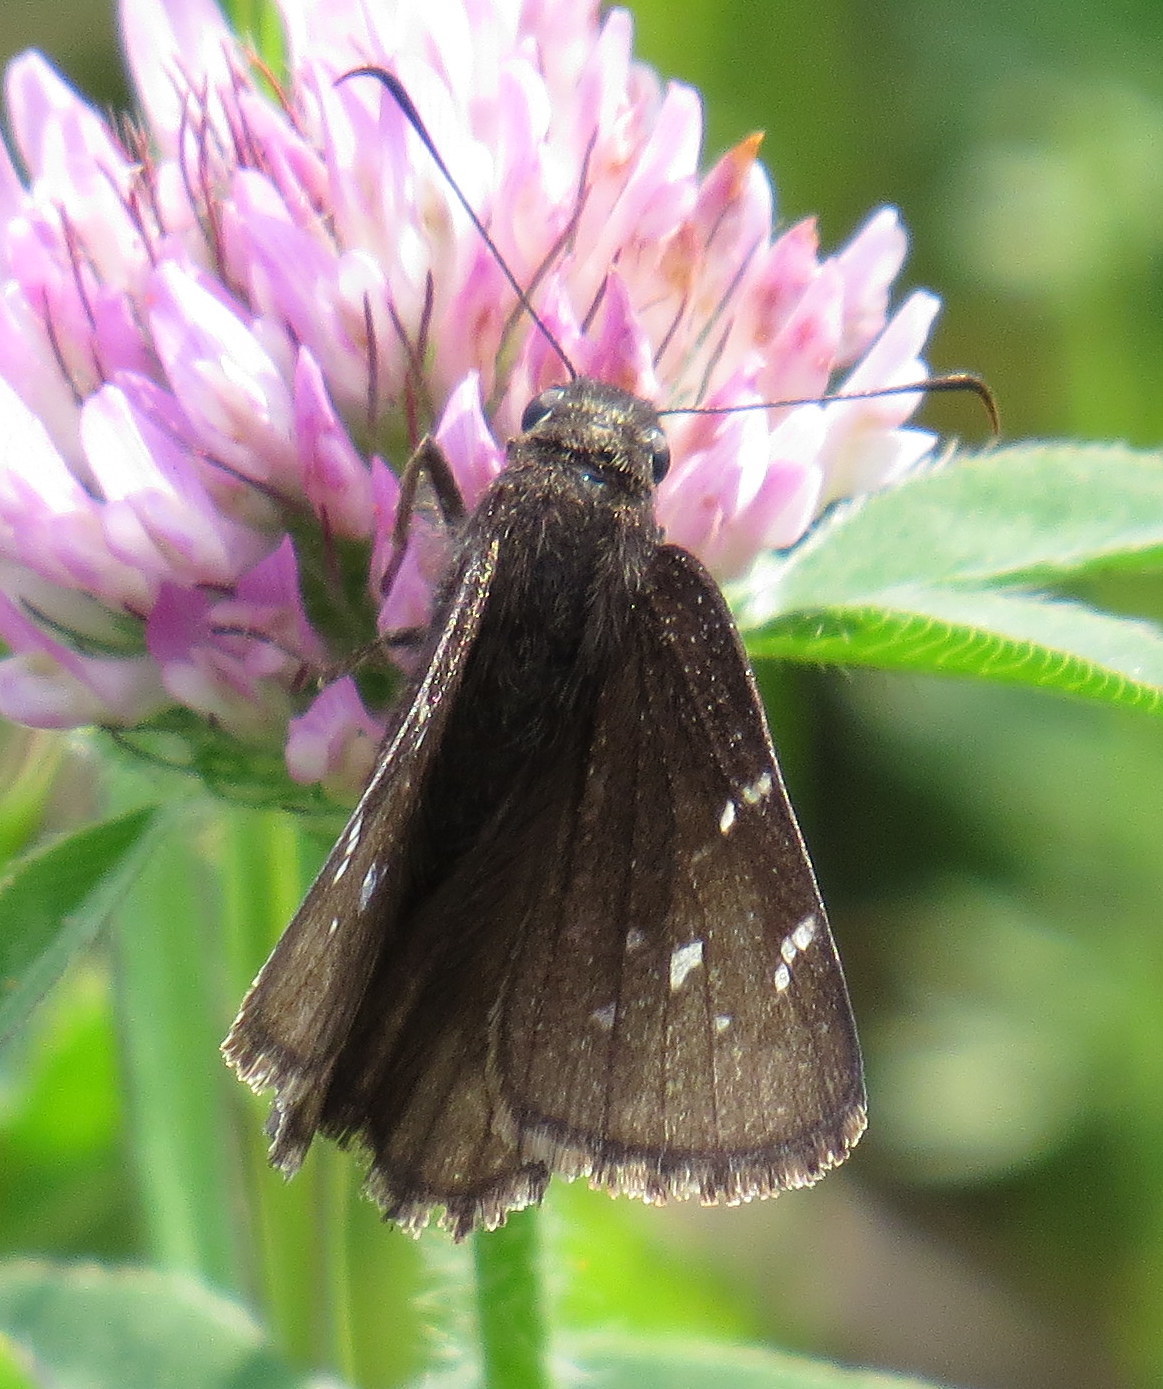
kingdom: Animalia
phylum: Arthropoda
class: Insecta
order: Lepidoptera
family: Hesperiidae
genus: Thorybes
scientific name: Thorybes pylades
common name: Northern cloudywing
